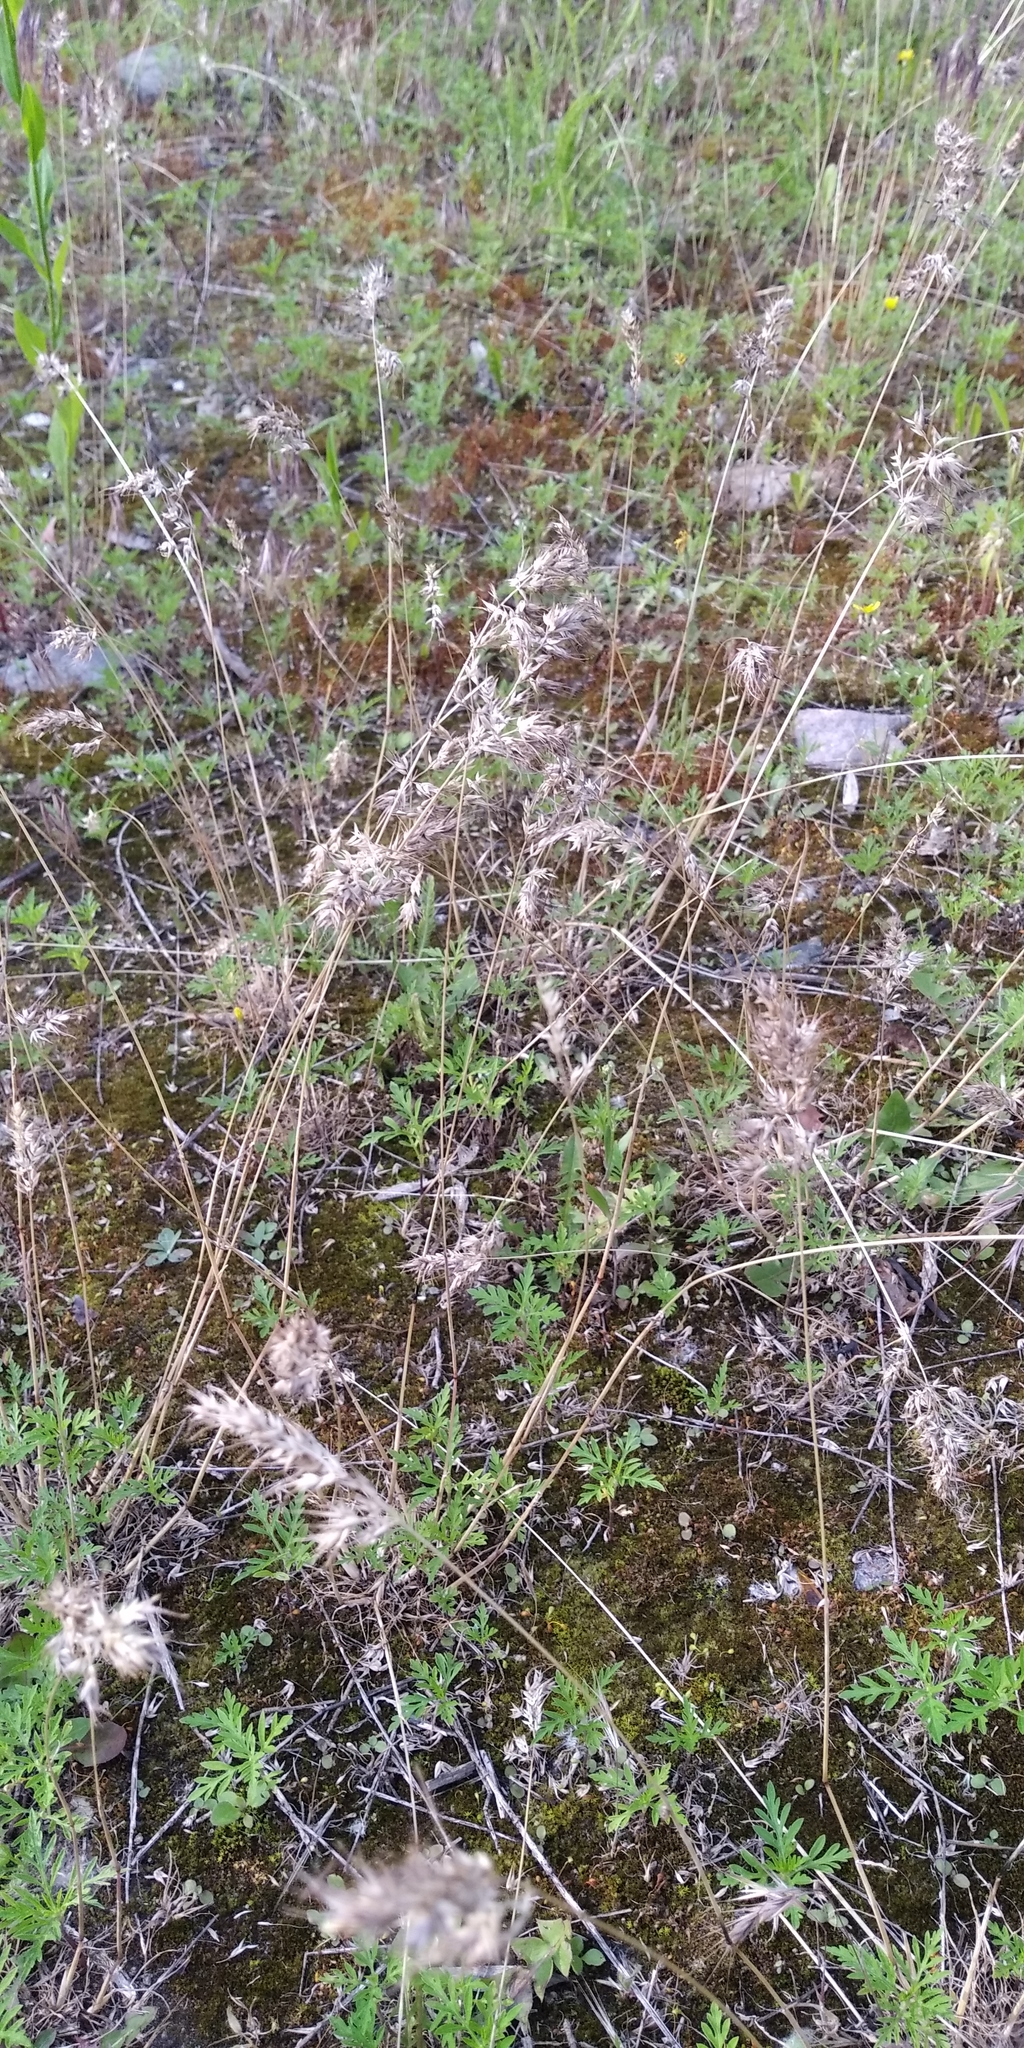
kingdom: Plantae
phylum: Tracheophyta
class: Liliopsida
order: Poales
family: Poaceae
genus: Poa
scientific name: Poa bulbosa
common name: Bulbous bluegrass
